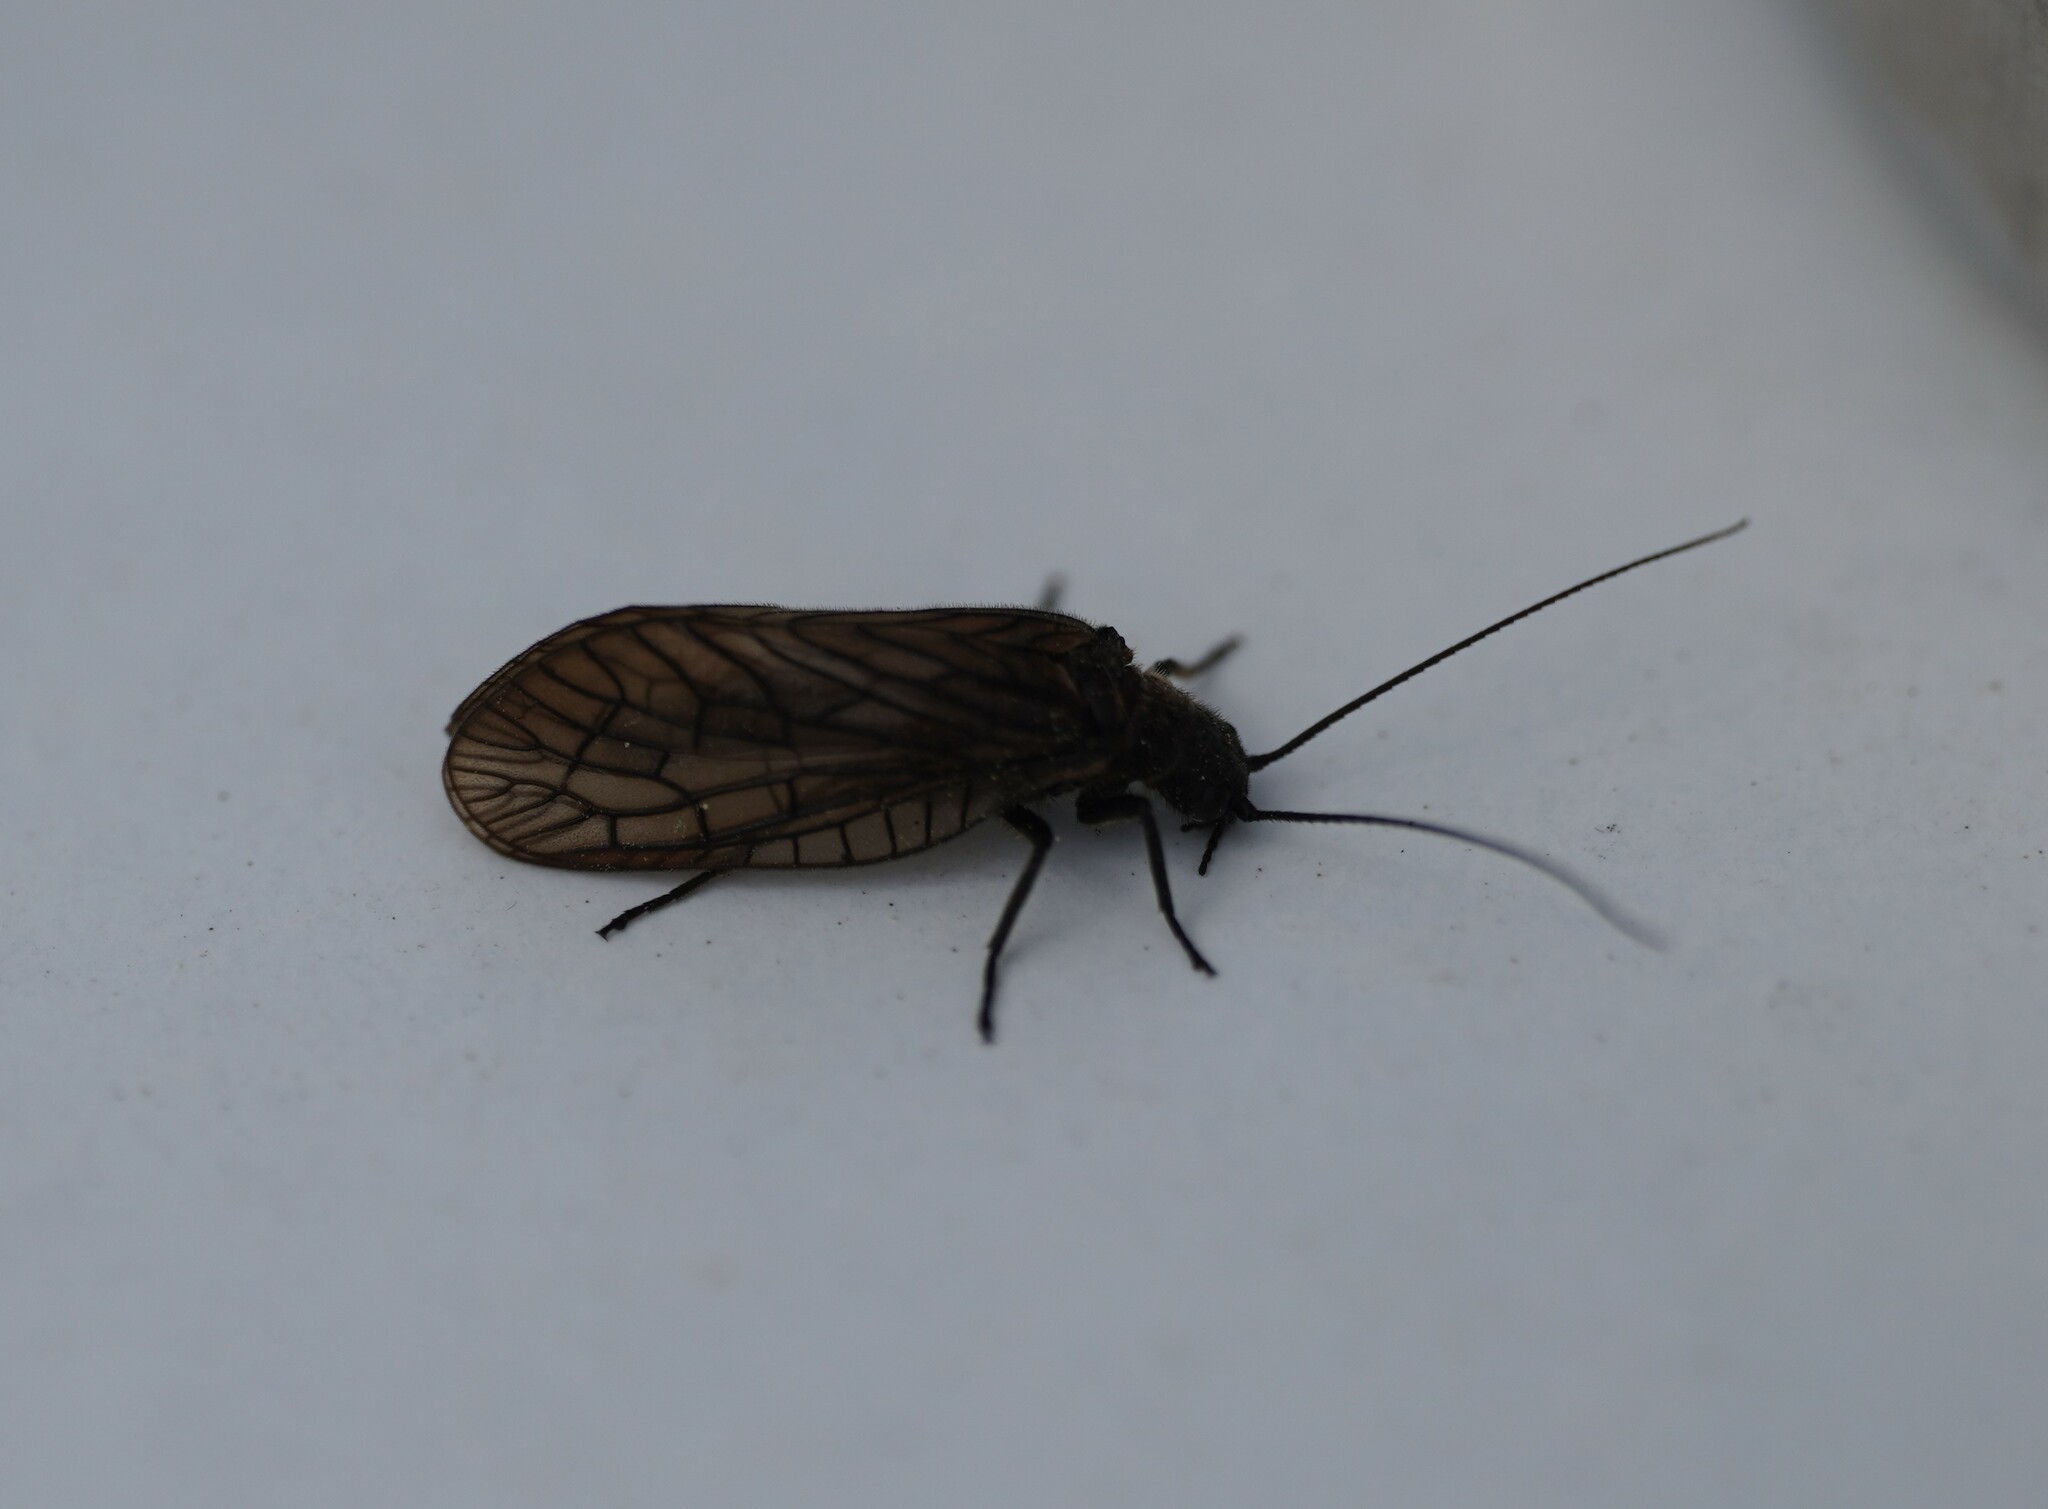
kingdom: Animalia
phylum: Arthropoda
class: Insecta
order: Megaloptera
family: Sialidae
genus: Sialis
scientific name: Sialis
